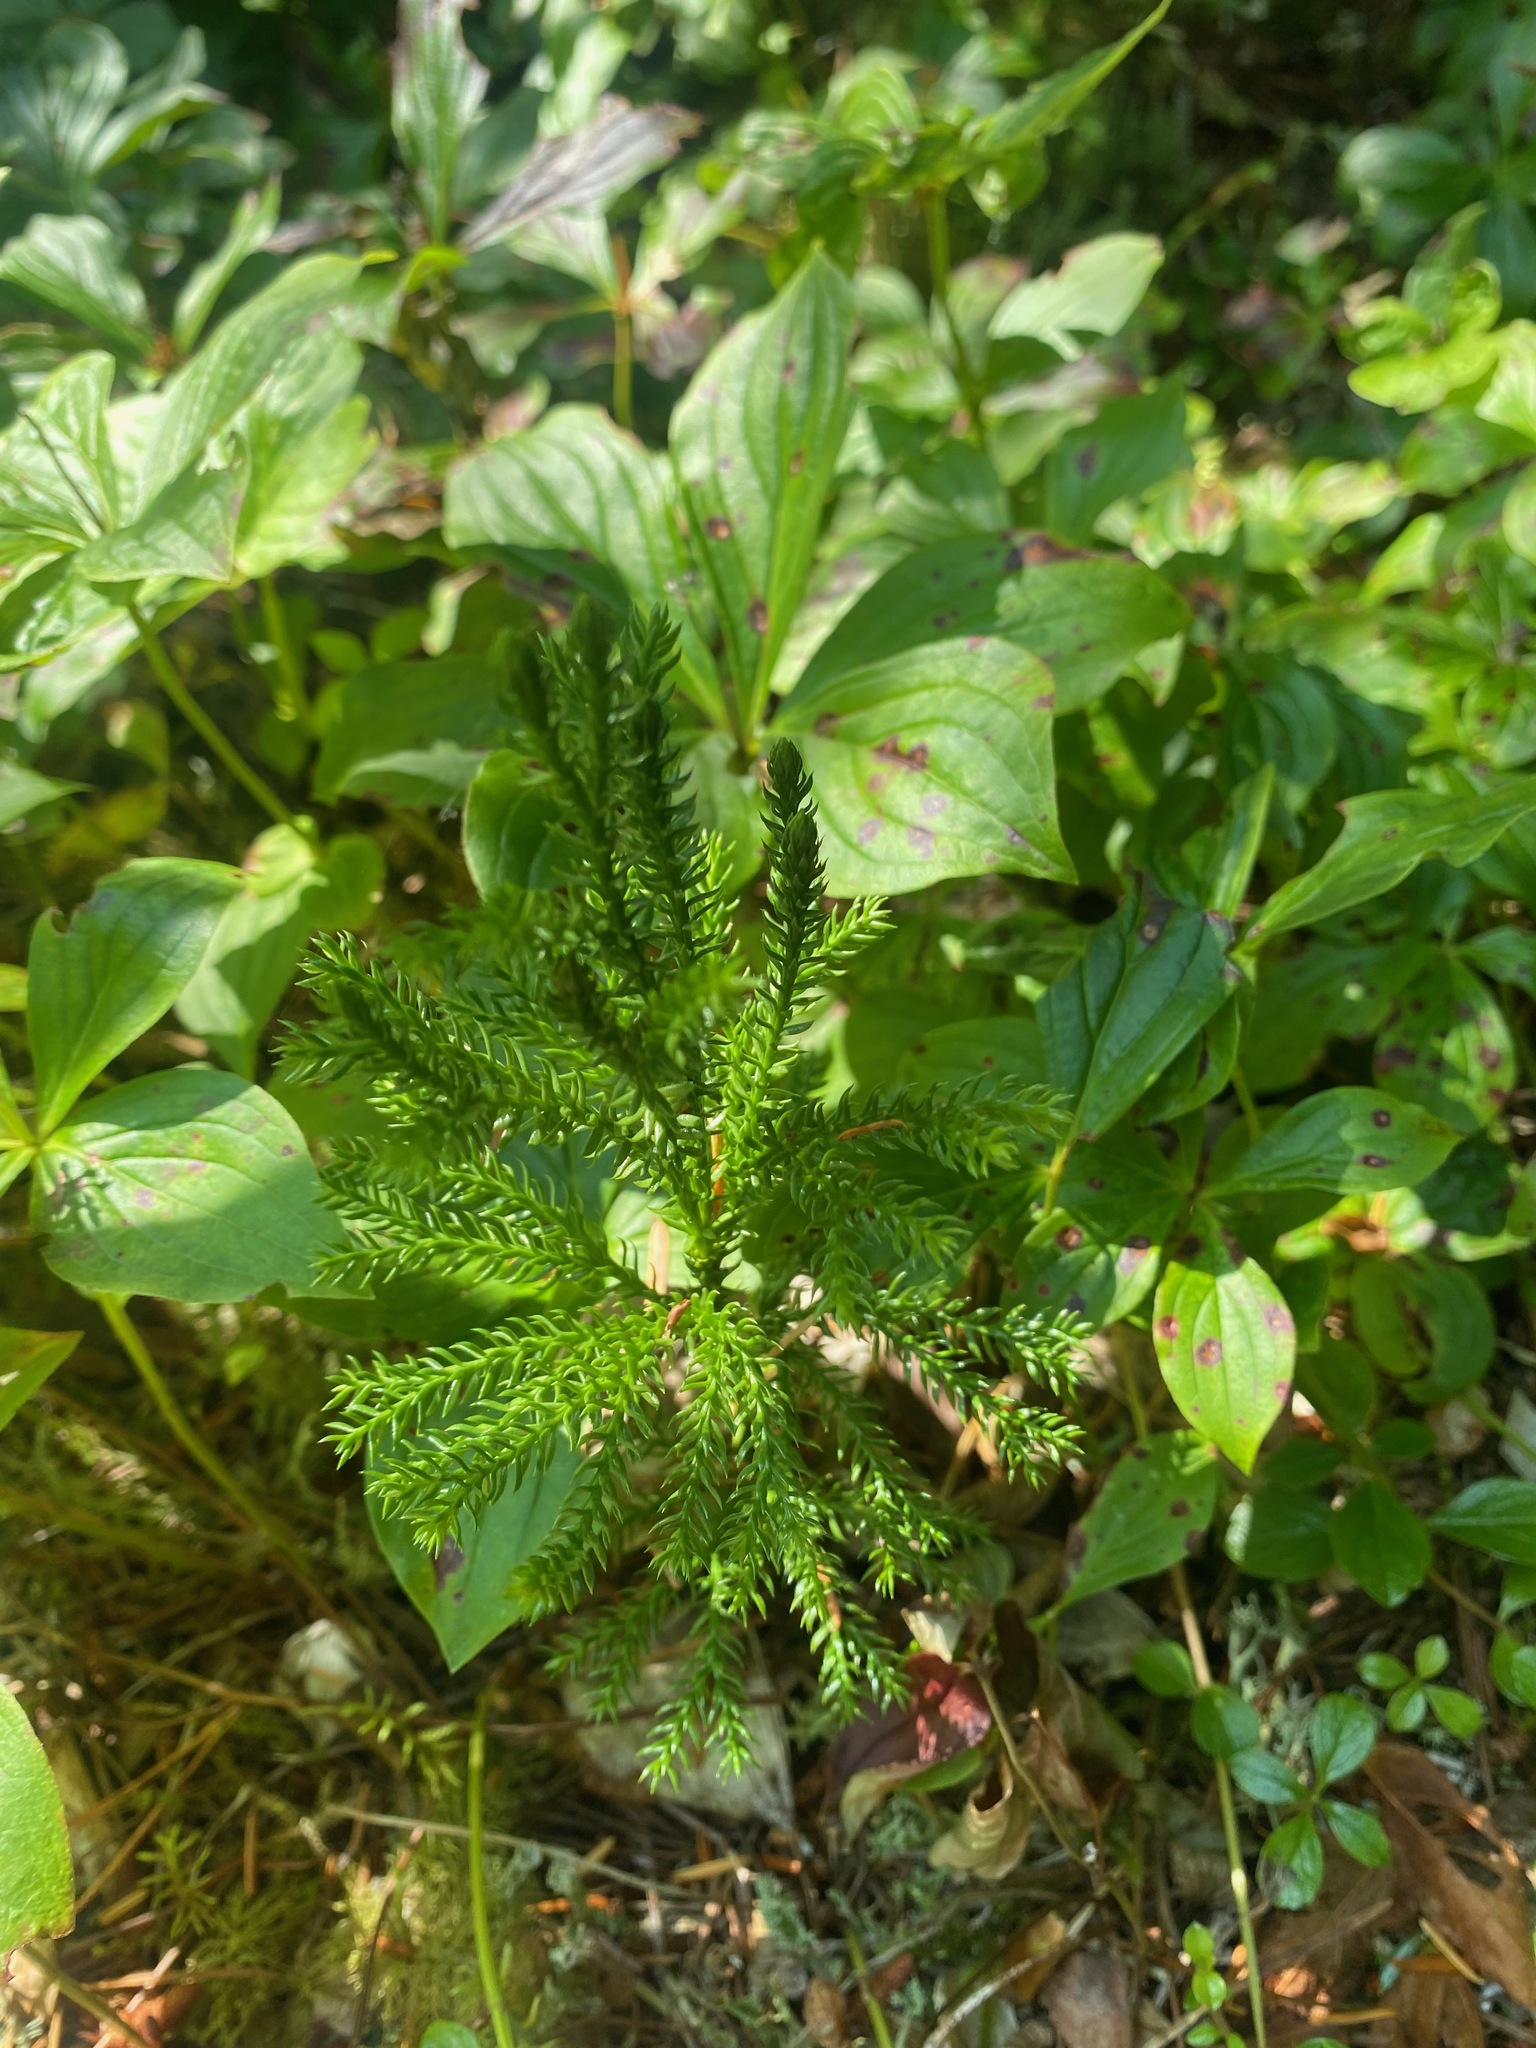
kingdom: Plantae
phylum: Tracheophyta
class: Lycopodiopsida
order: Lycopodiales
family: Lycopodiaceae
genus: Dendrolycopodium
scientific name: Dendrolycopodium dendroideum
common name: Northern tree-clubmoss
